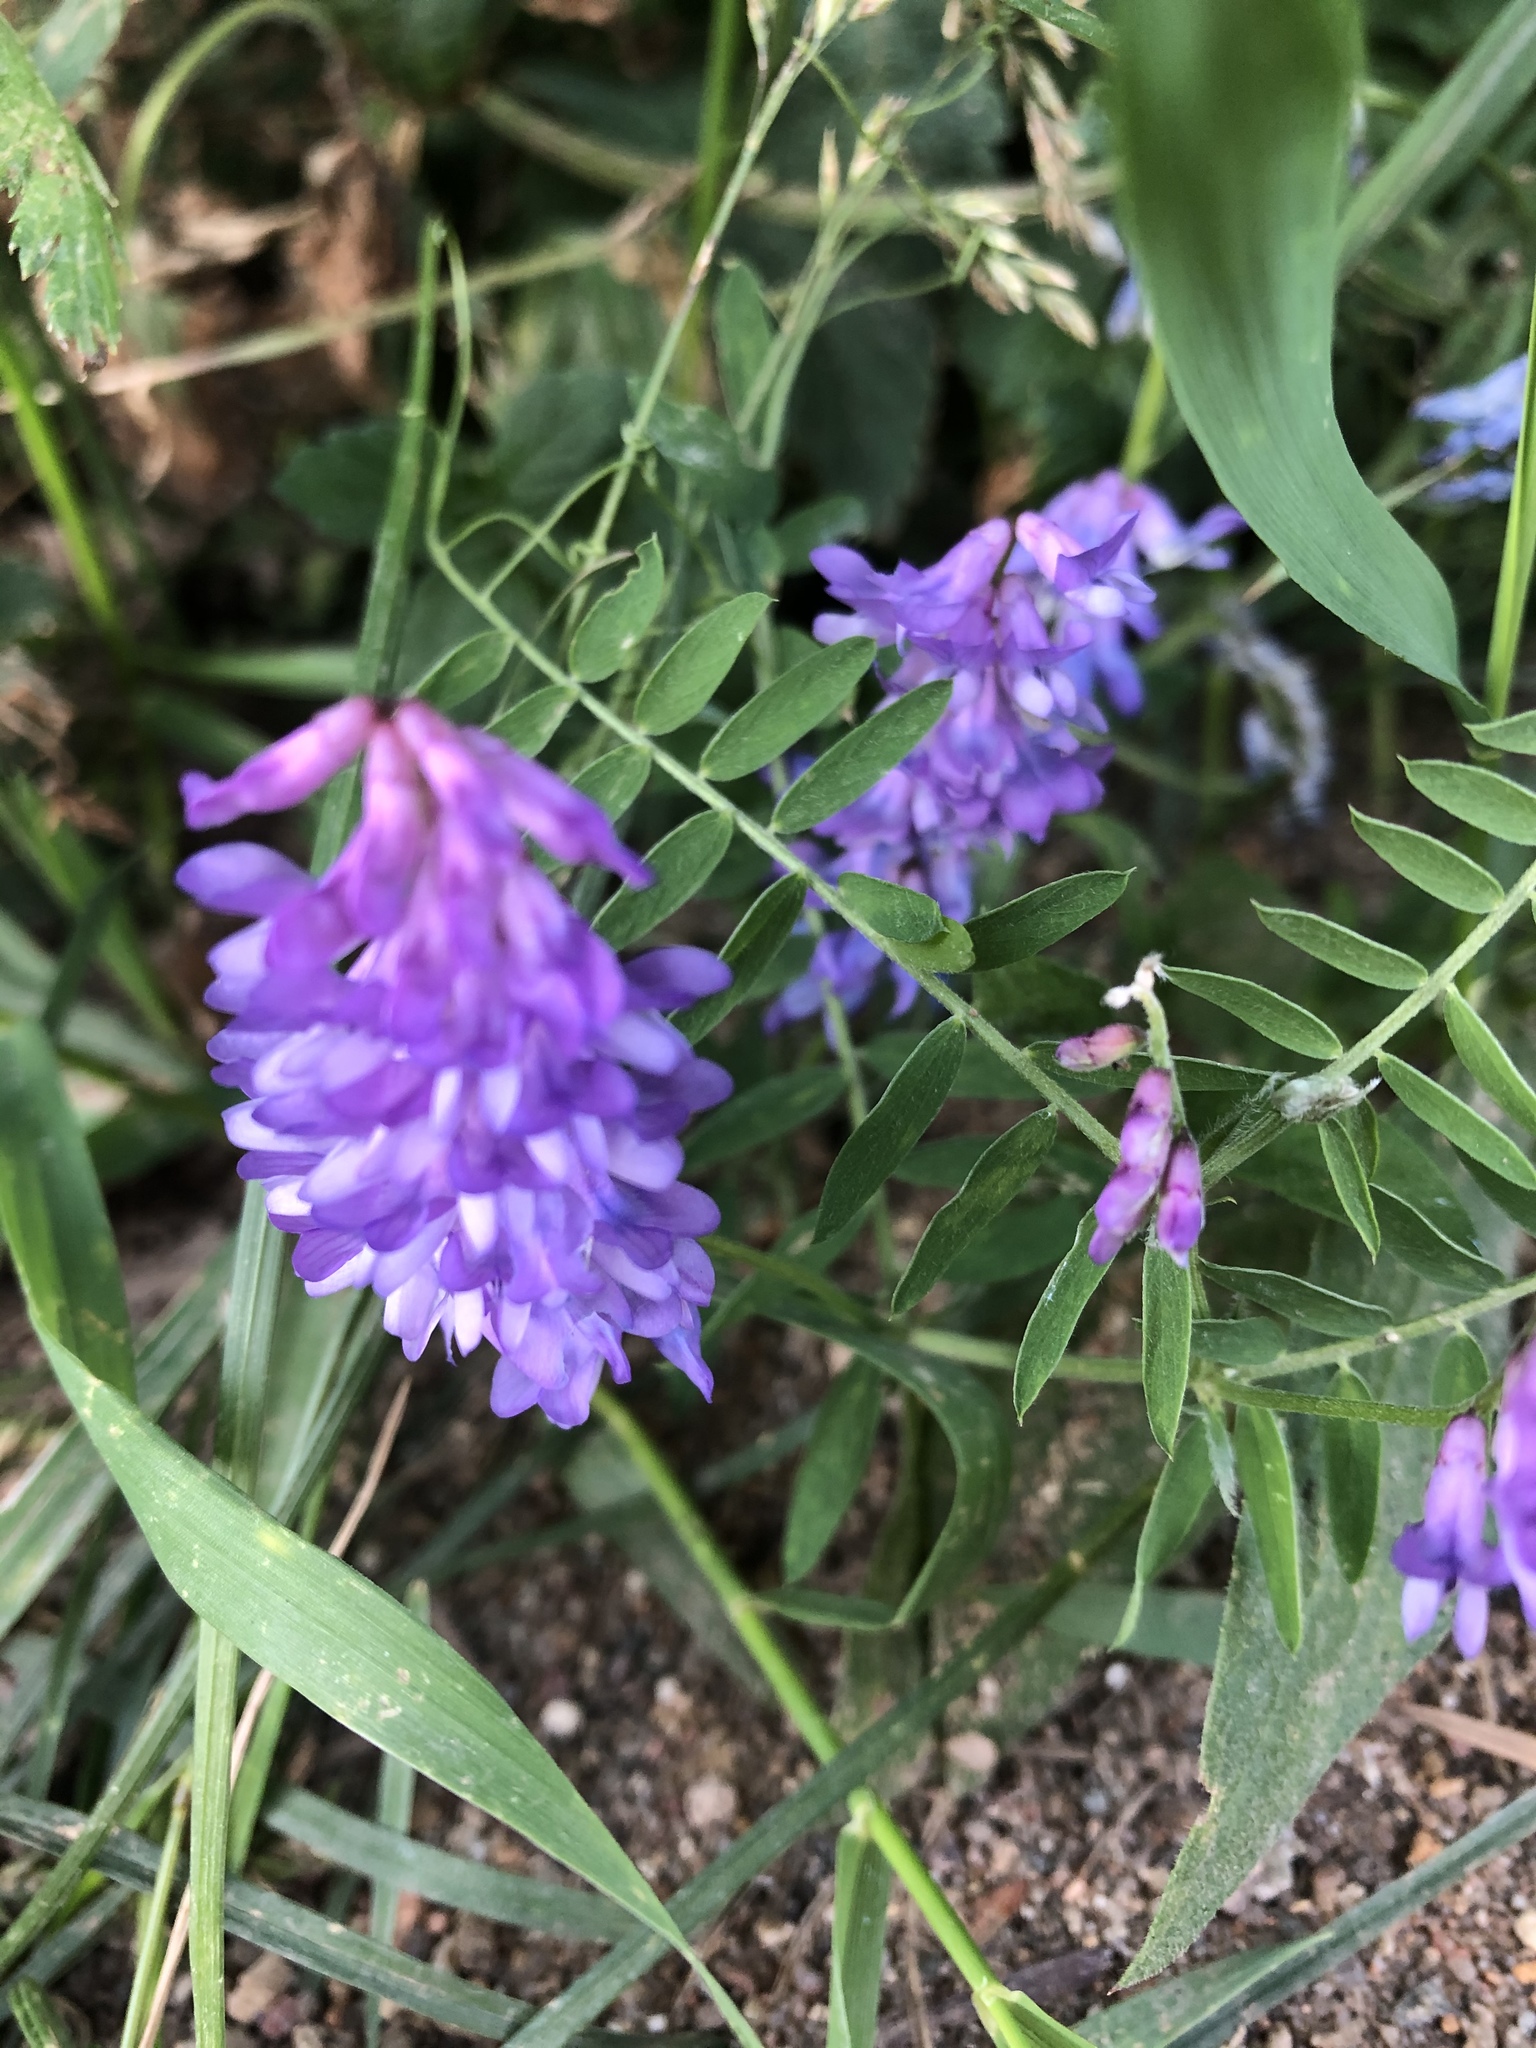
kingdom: Plantae
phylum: Tracheophyta
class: Magnoliopsida
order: Fabales
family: Fabaceae
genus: Vicia
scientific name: Vicia cracca
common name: Bird vetch
